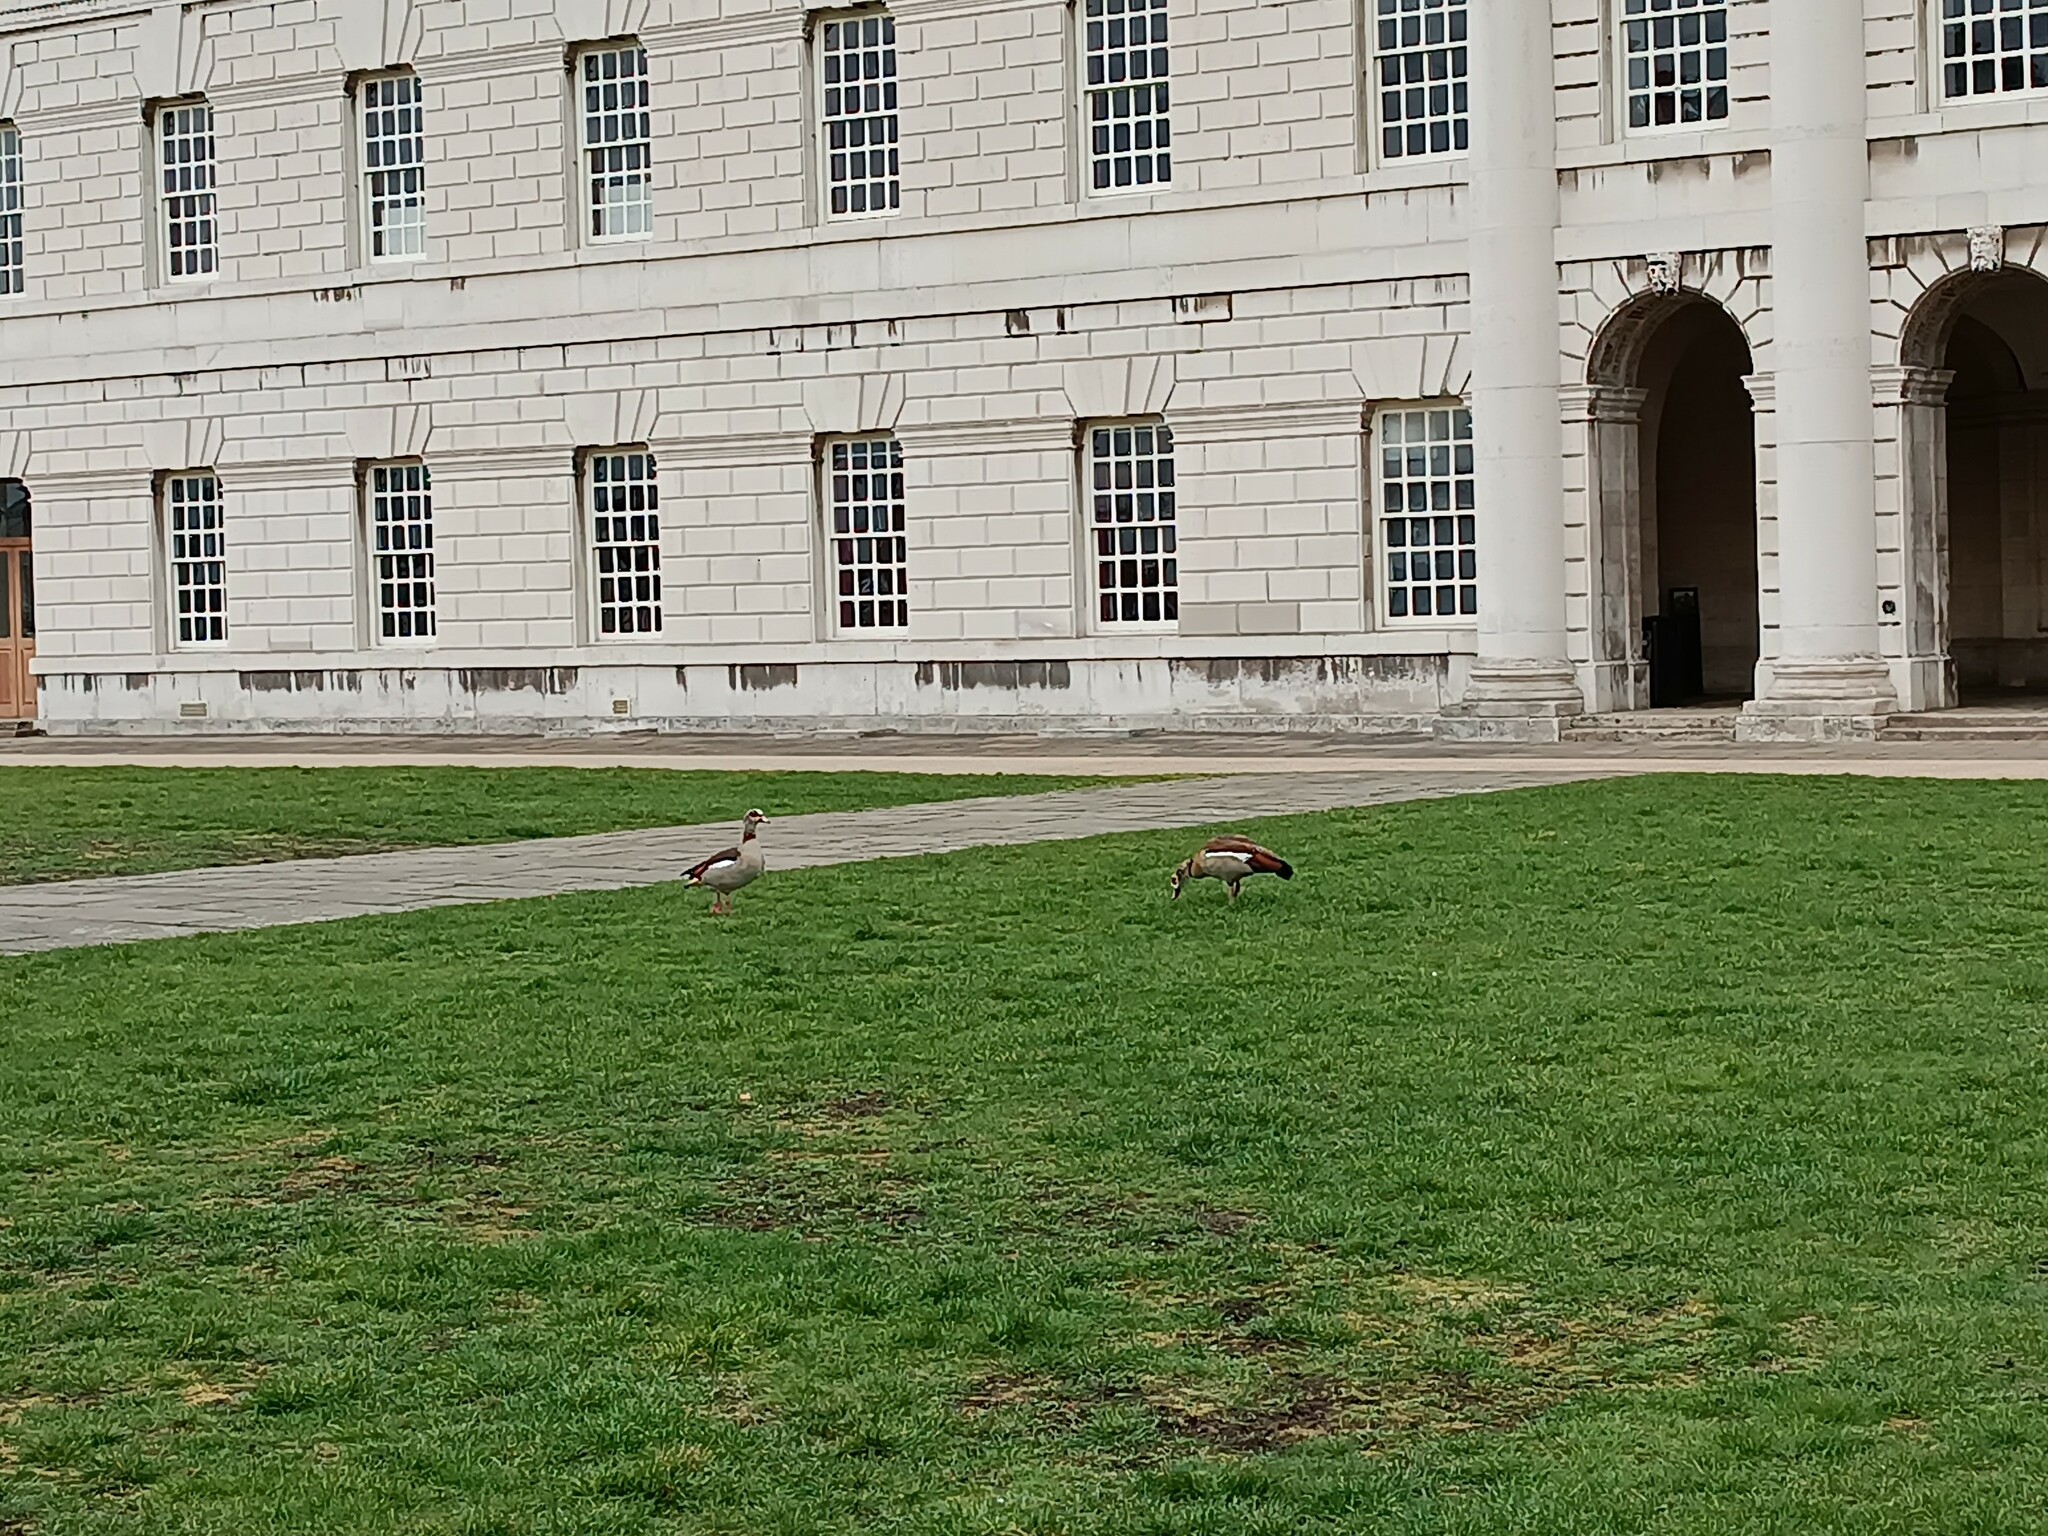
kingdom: Animalia
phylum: Chordata
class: Aves
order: Anseriformes
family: Anatidae
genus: Alopochen
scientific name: Alopochen aegyptiaca
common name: Egyptian goose
